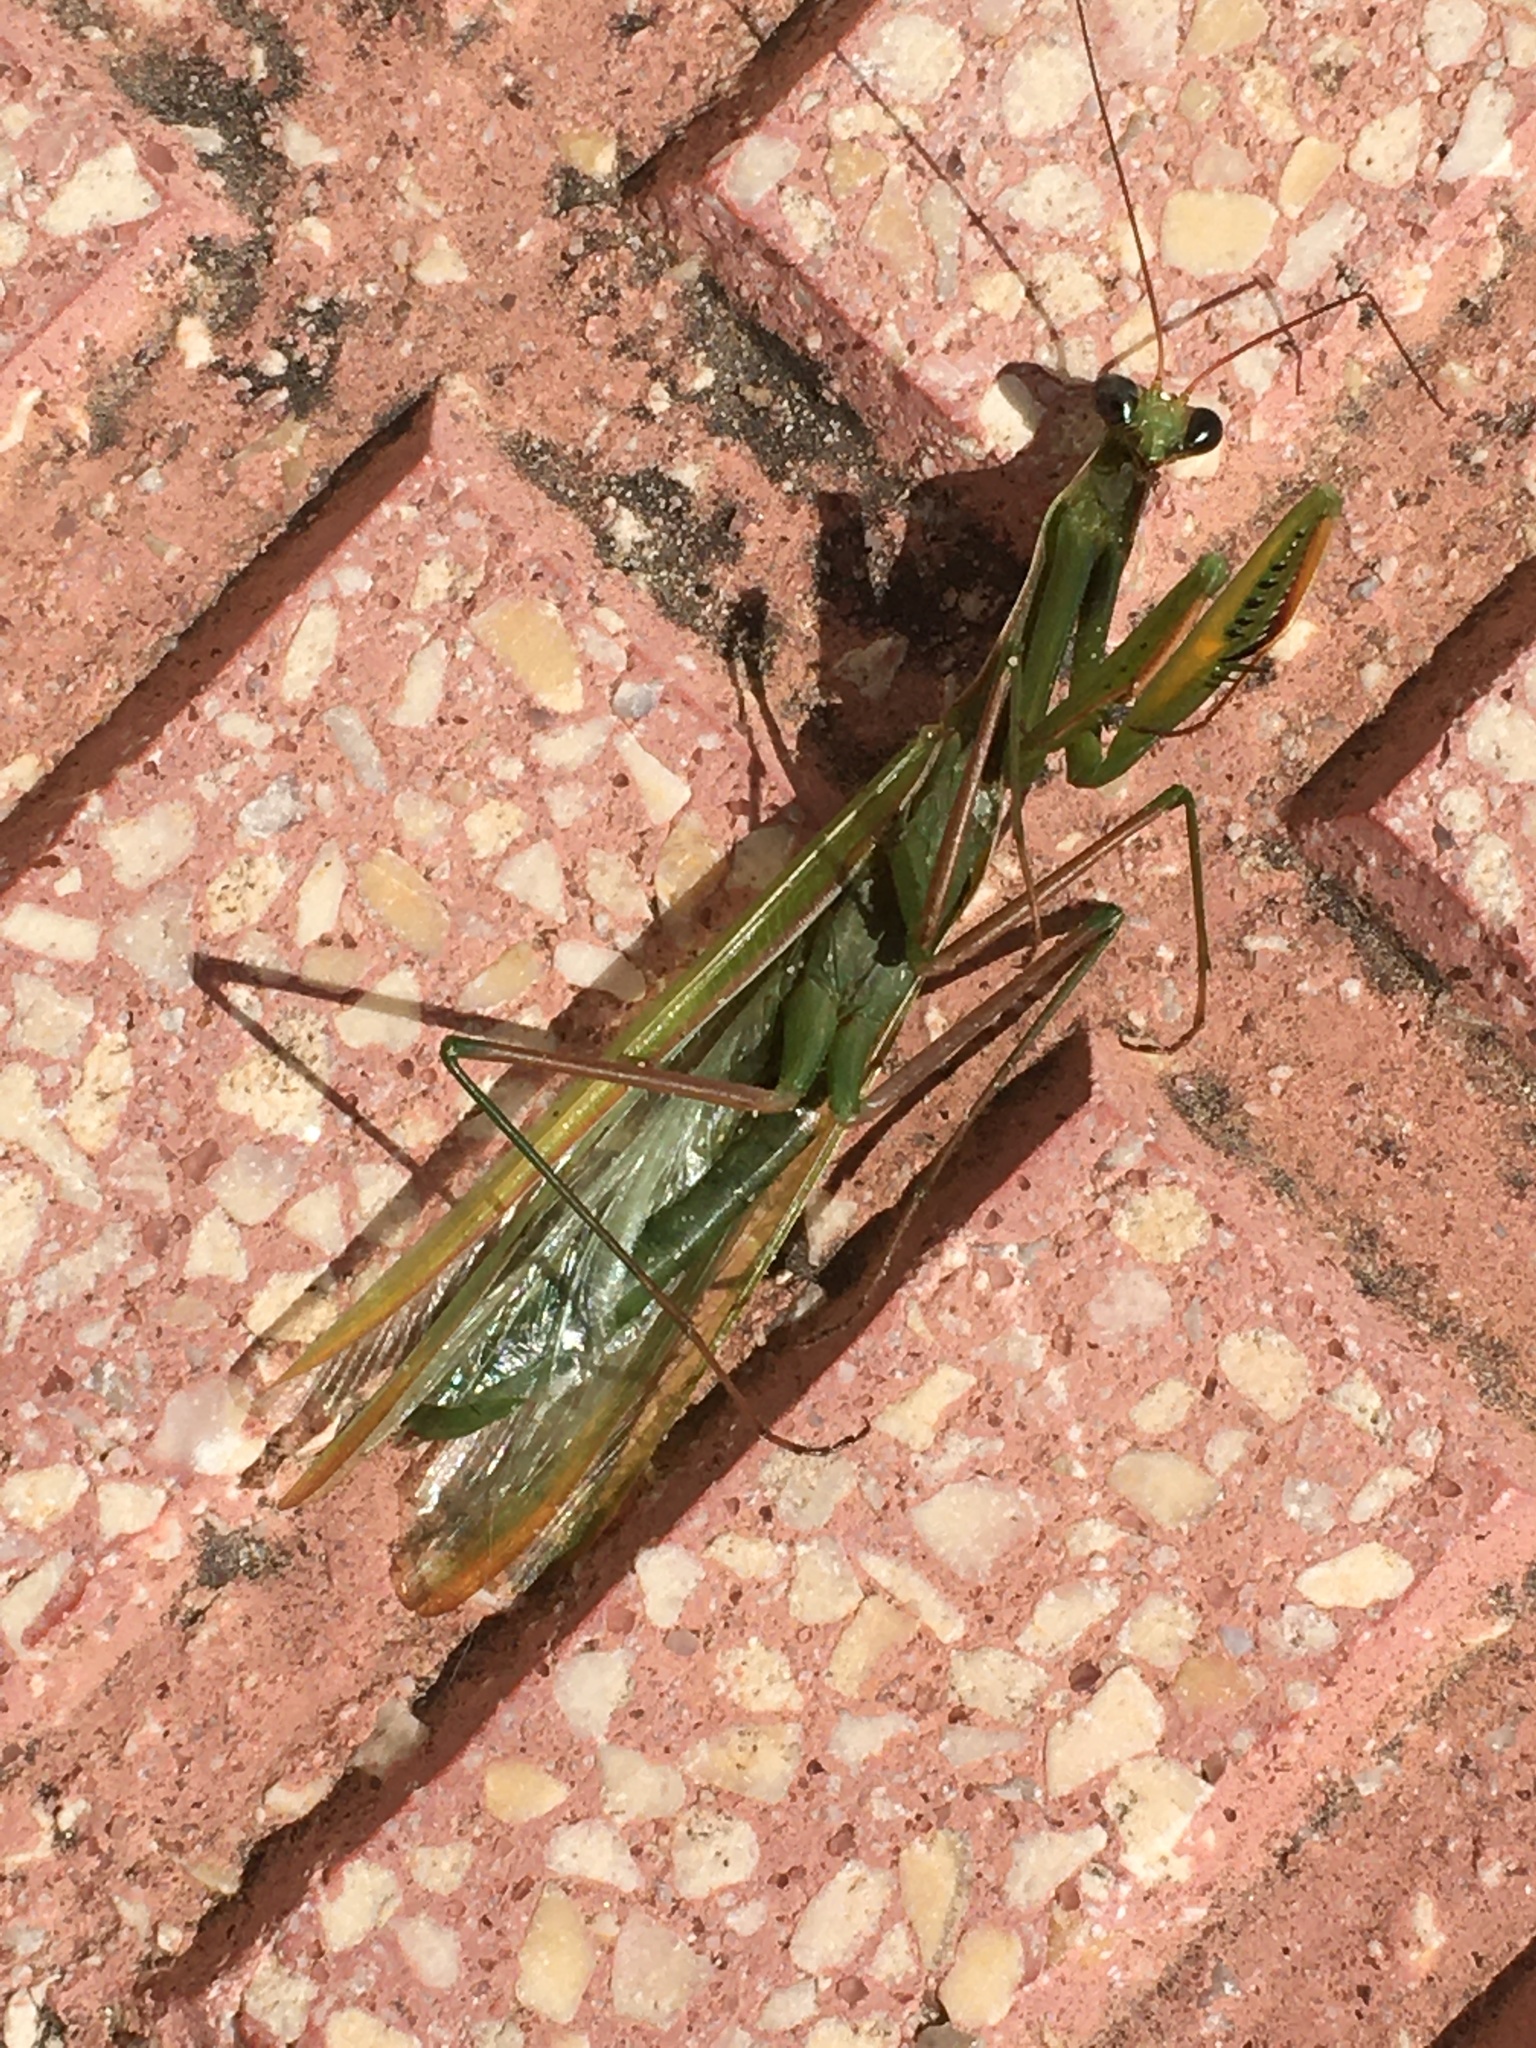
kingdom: Animalia
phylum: Arthropoda
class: Insecta
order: Mantodea
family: Mantidae
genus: Mantis
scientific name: Mantis religiosa
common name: Praying mantis
